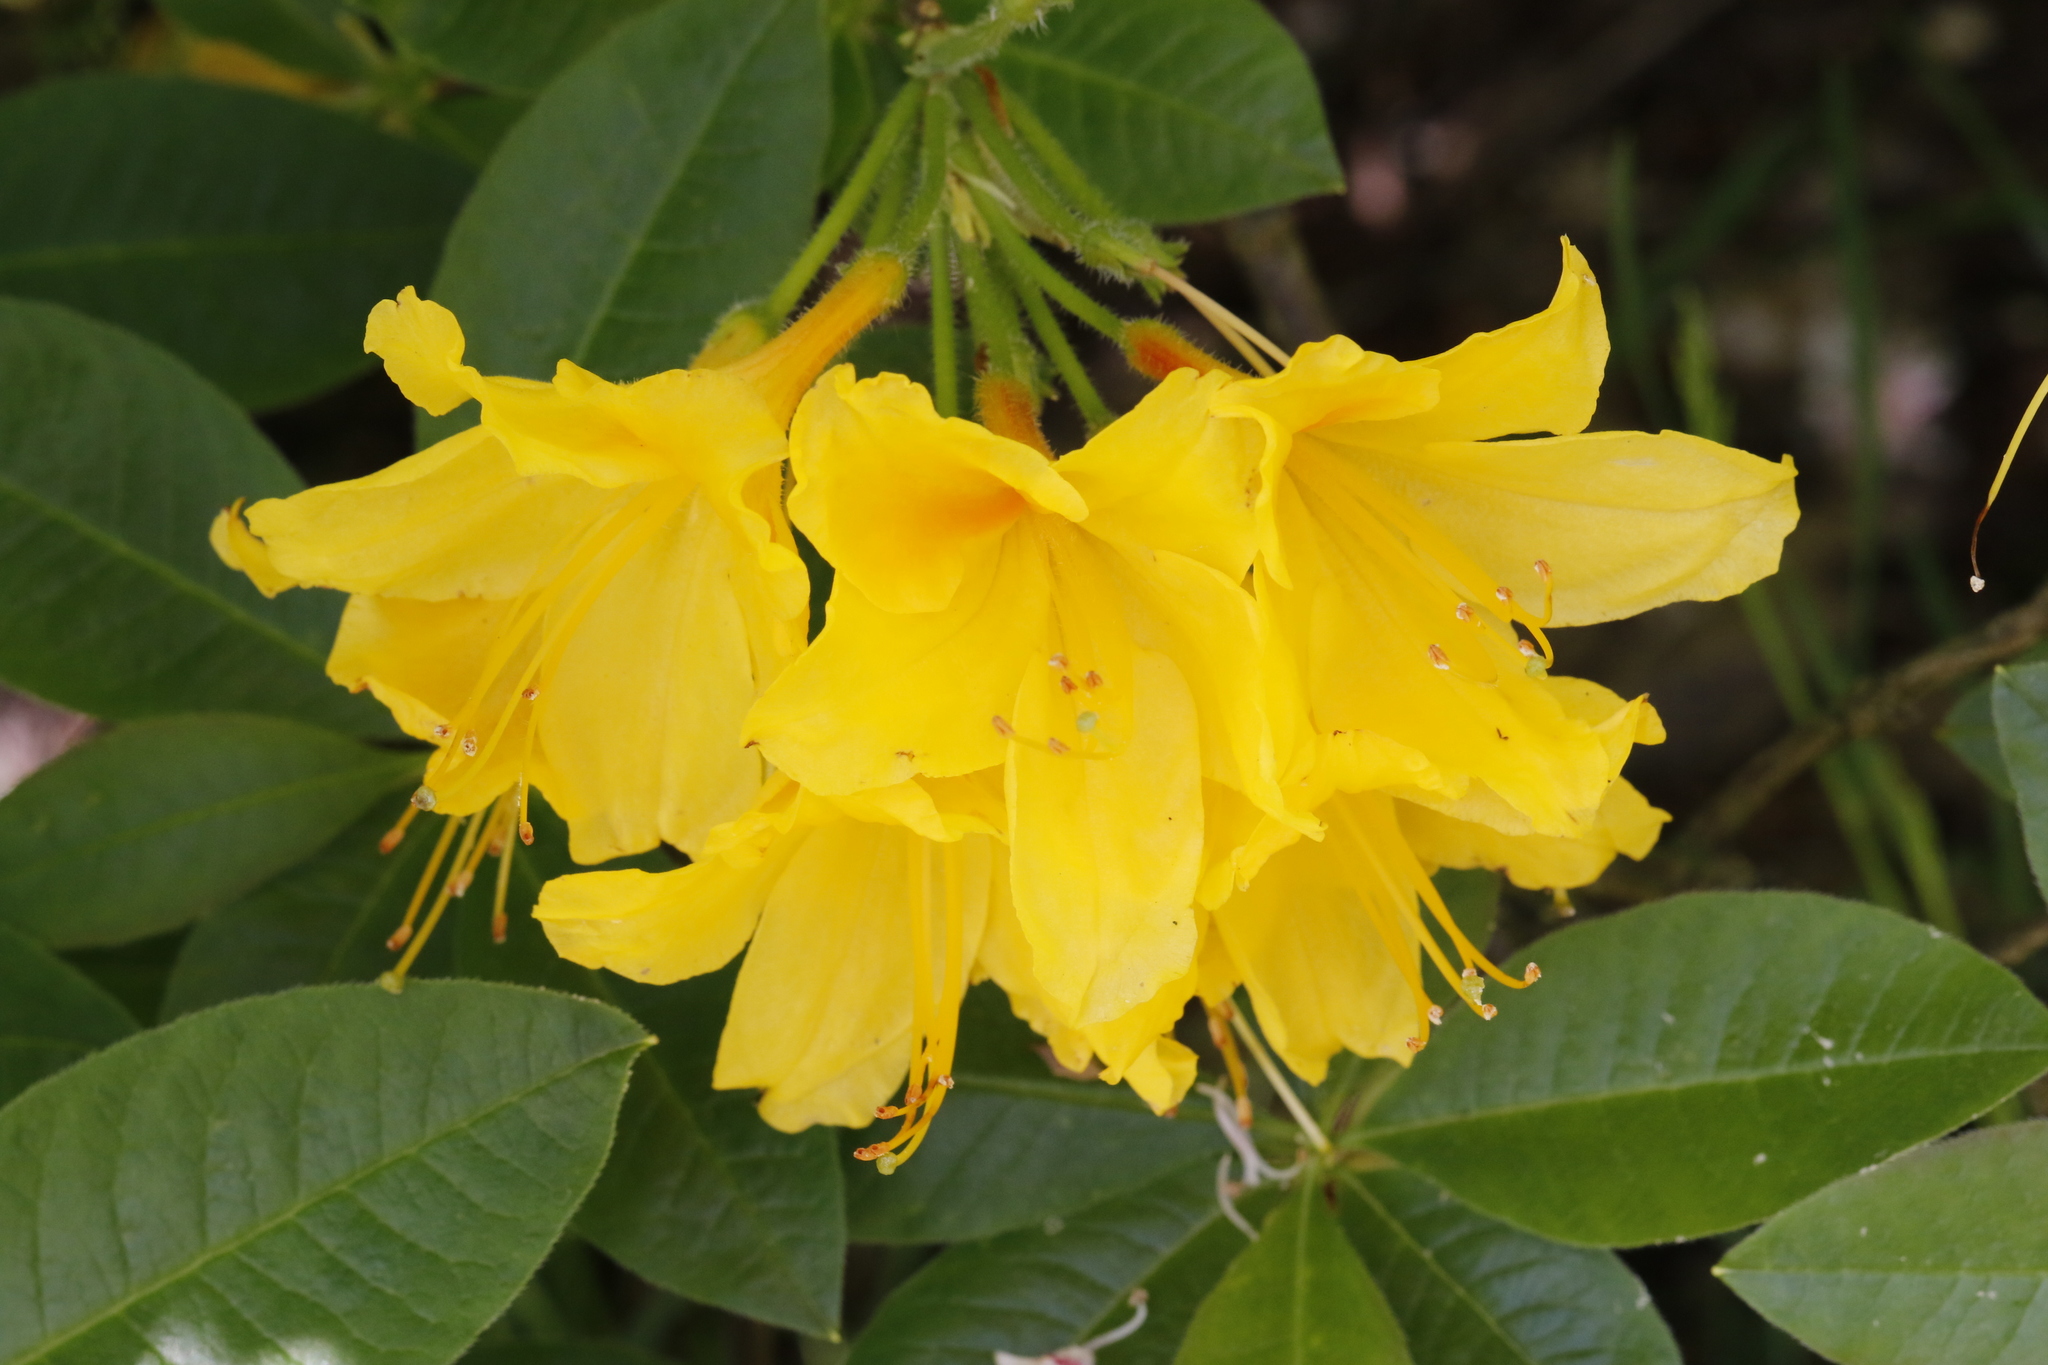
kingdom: Plantae
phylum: Tracheophyta
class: Magnoliopsida
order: Ericales
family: Ericaceae
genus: Rhododendron
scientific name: Rhododendron
